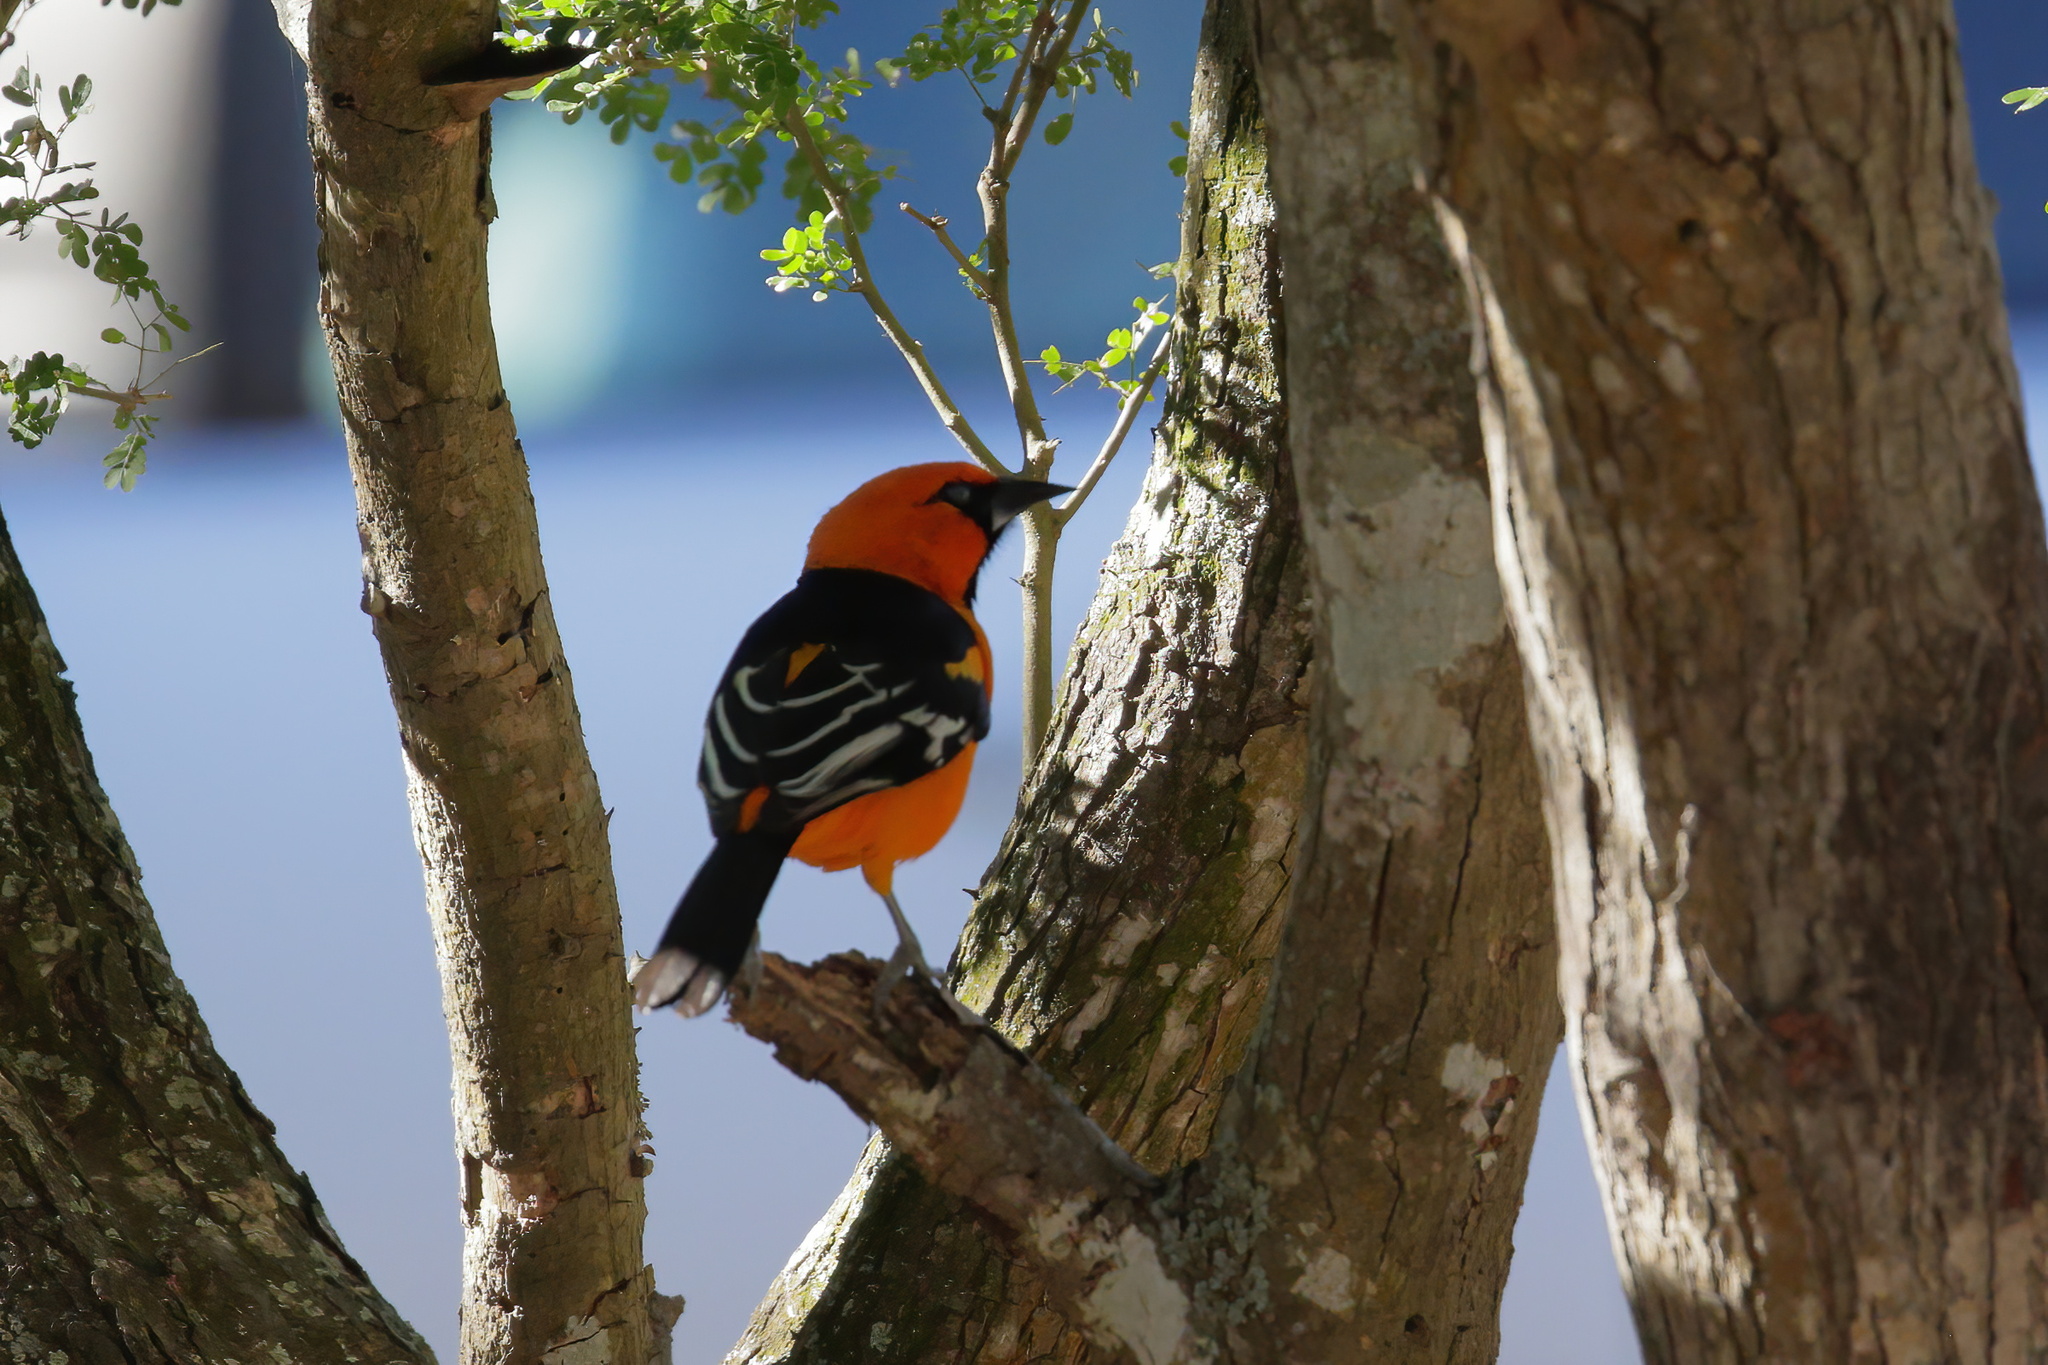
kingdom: Animalia
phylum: Chordata
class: Aves
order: Passeriformes
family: Icteridae
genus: Icterus
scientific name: Icterus gularis
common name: Altamira oriole
